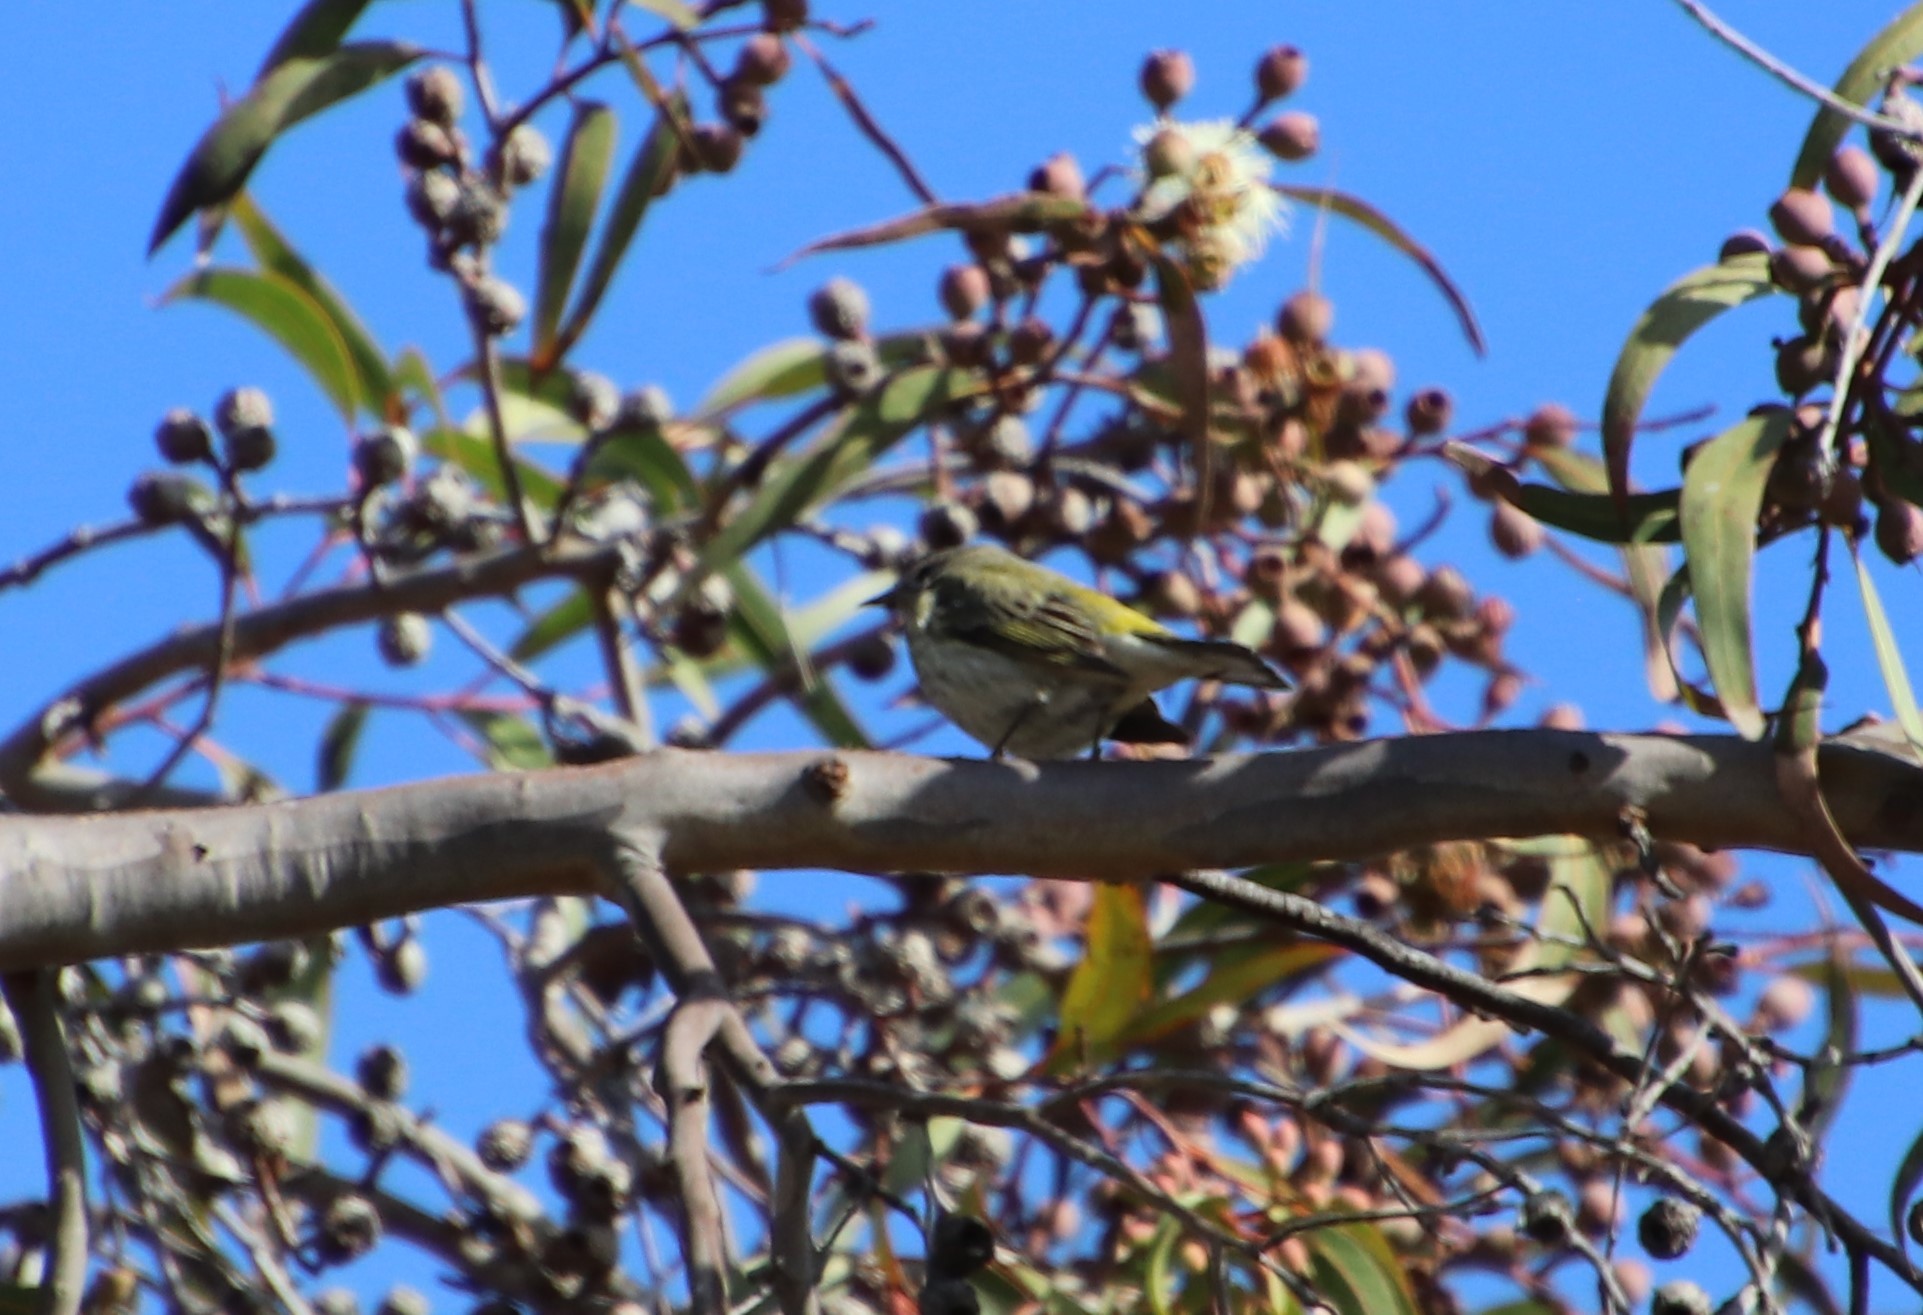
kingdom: Animalia
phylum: Chordata
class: Aves
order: Passeriformes
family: Parulidae
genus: Setophaga
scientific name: Setophaga tigrina
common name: Cape may warbler
